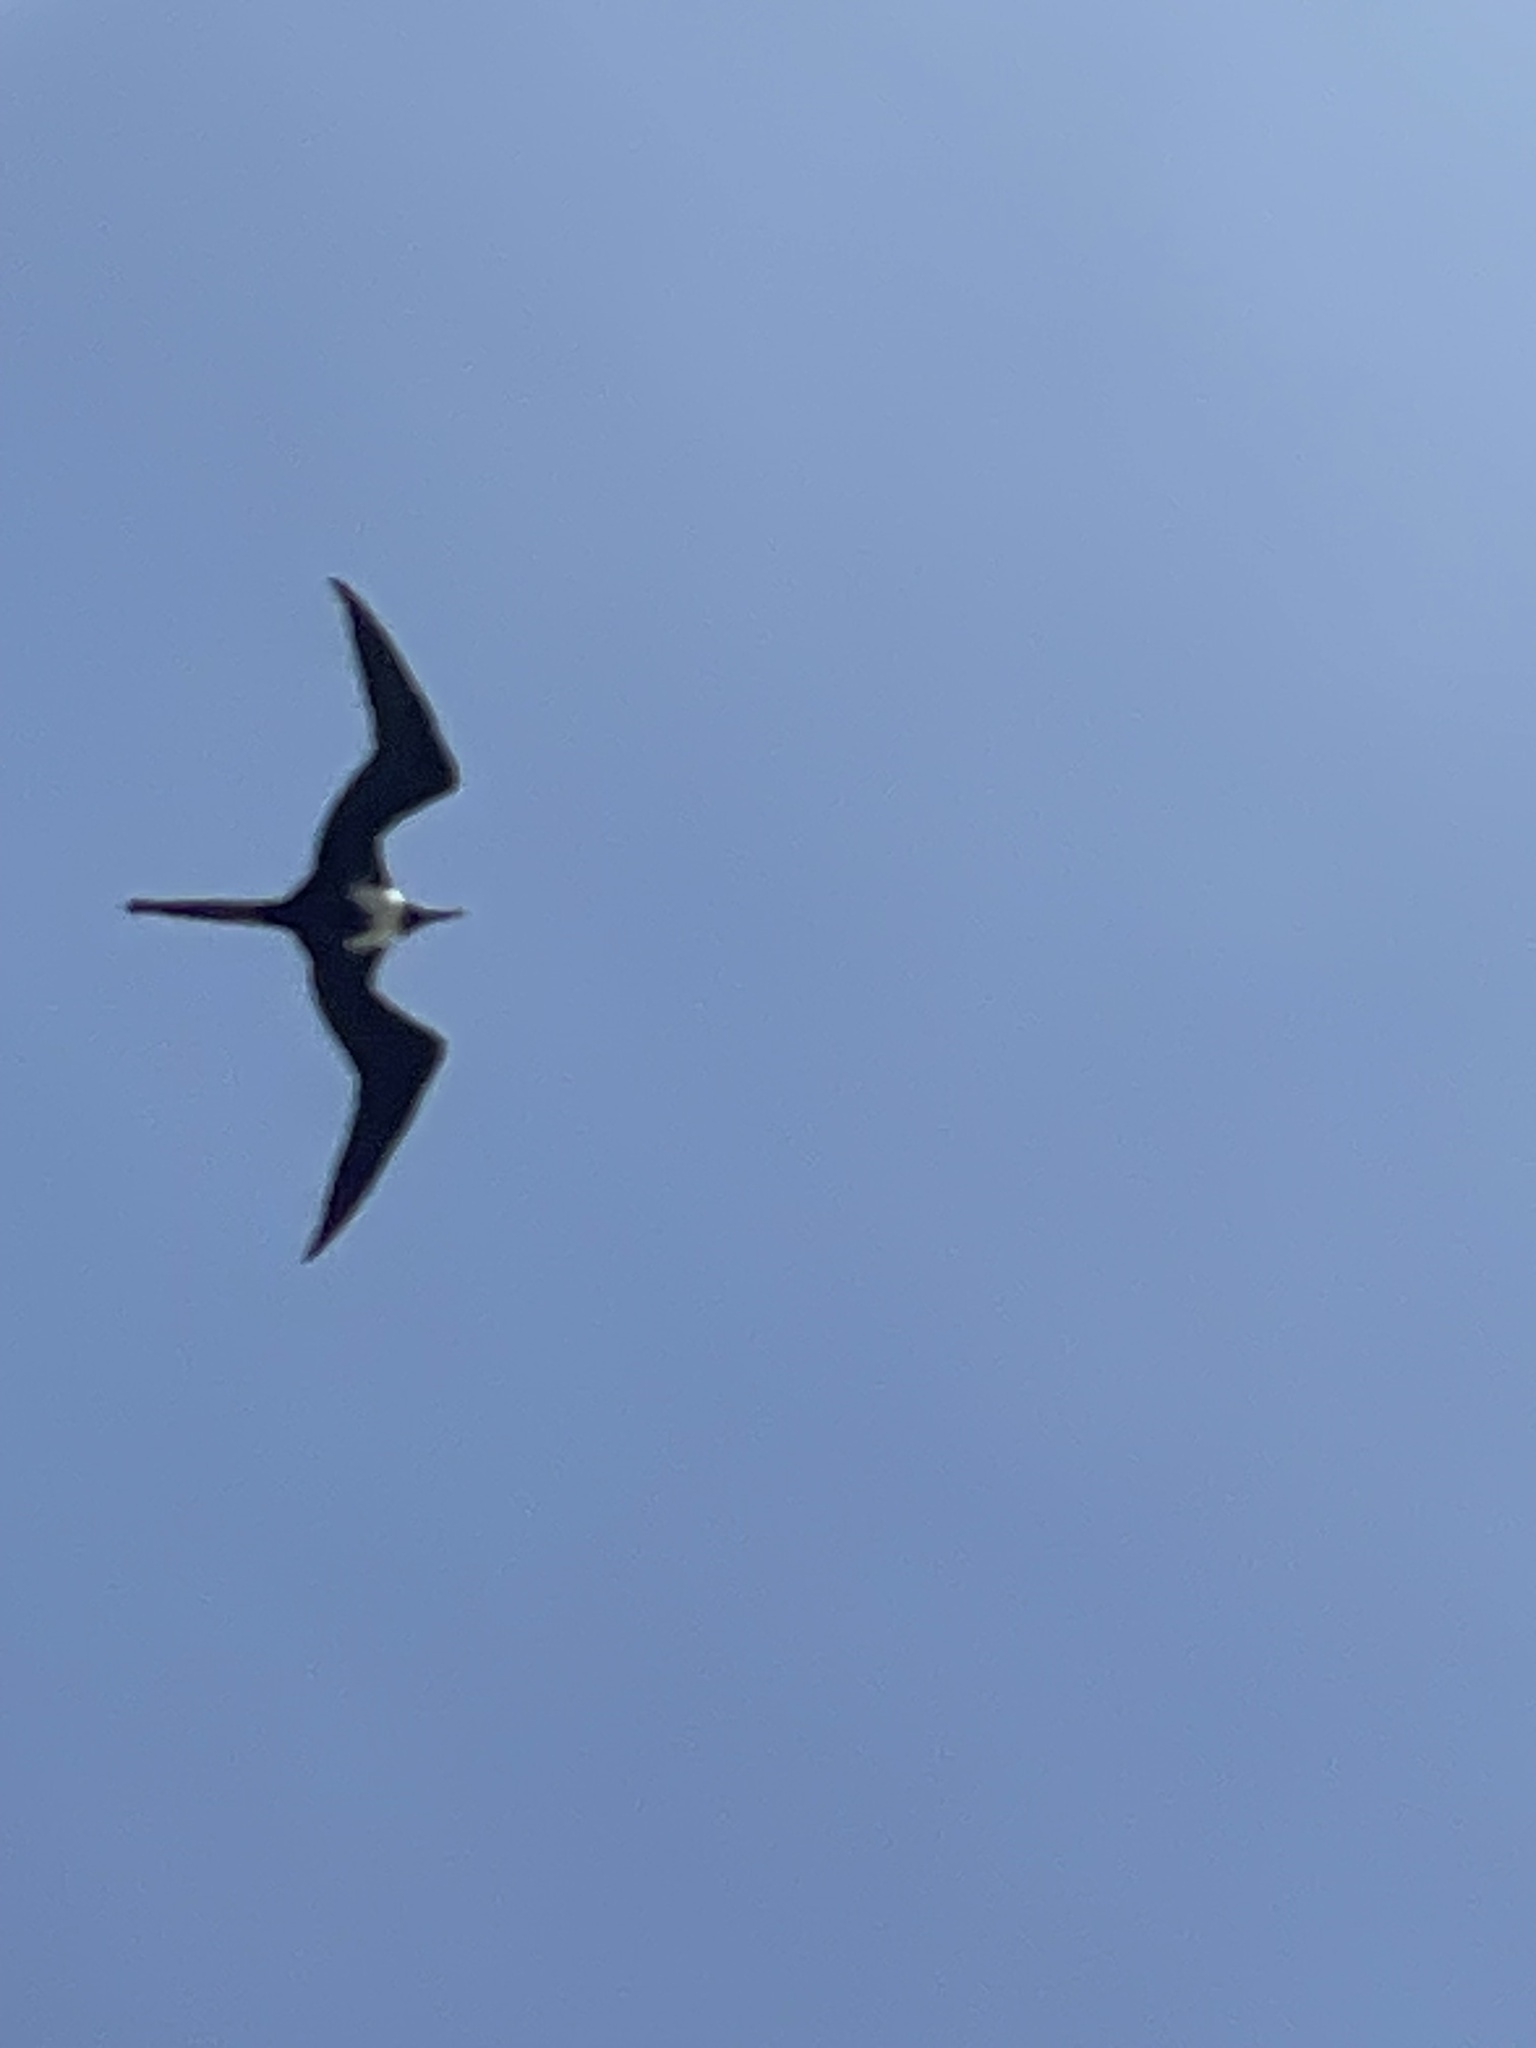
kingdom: Animalia
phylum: Chordata
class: Aves
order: Suliformes
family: Fregatidae
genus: Fregata
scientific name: Fregata magnificens
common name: Magnificent frigatebird
